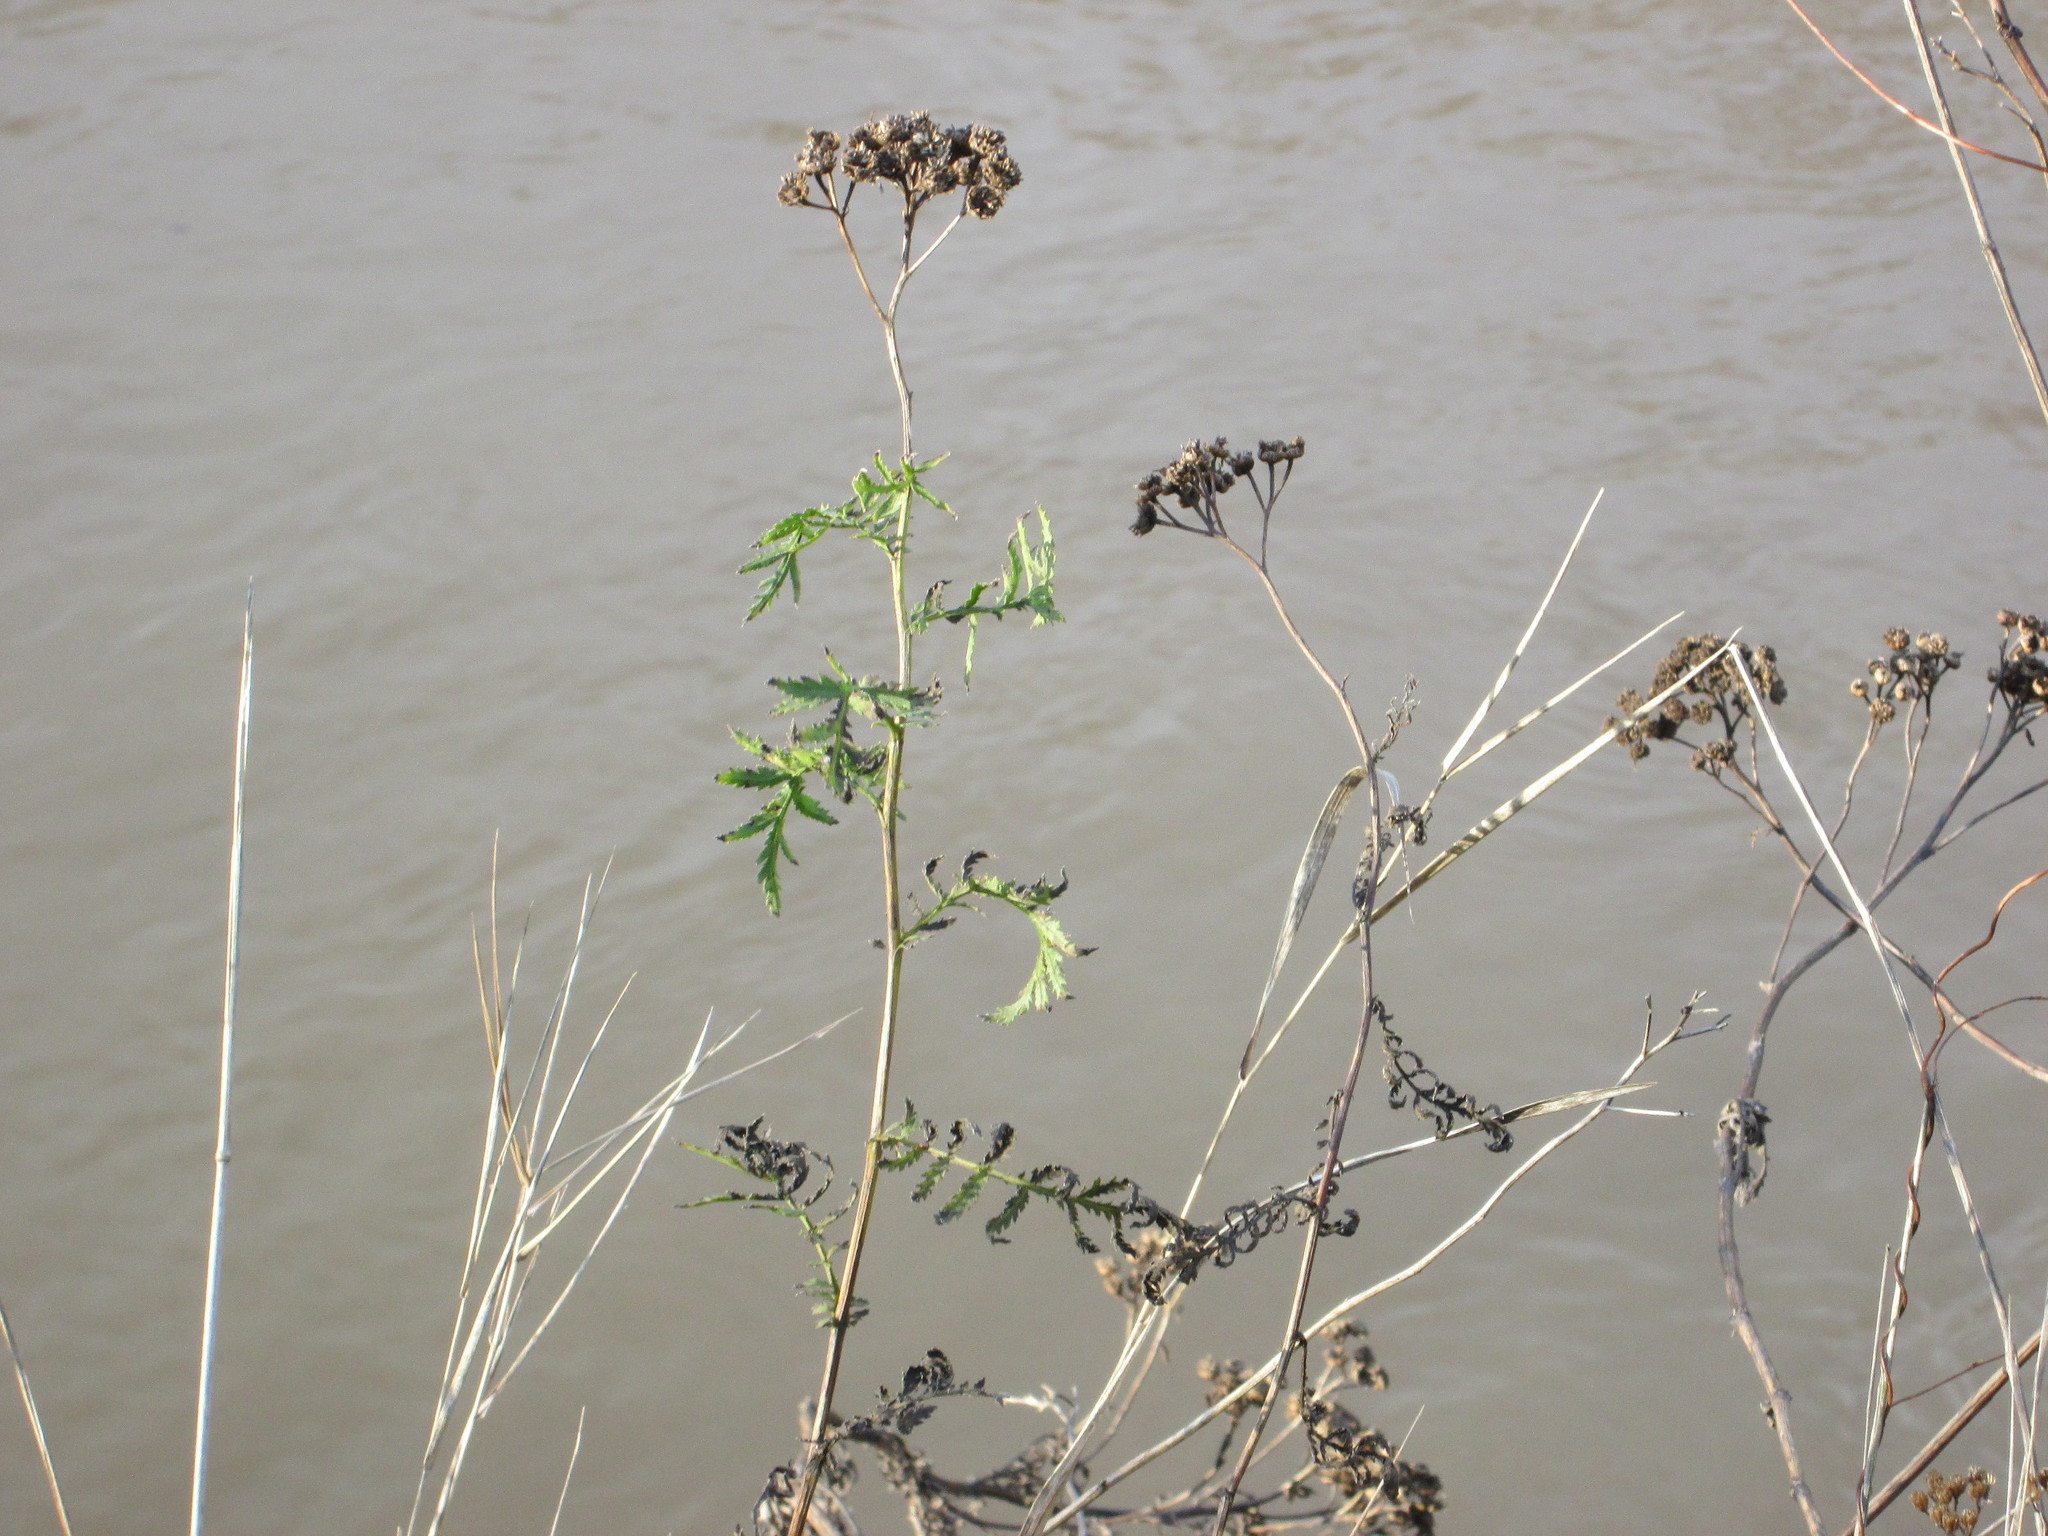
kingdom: Plantae
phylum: Tracheophyta
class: Magnoliopsida
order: Asterales
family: Asteraceae
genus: Tanacetum
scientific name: Tanacetum vulgare
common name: Common tansy
